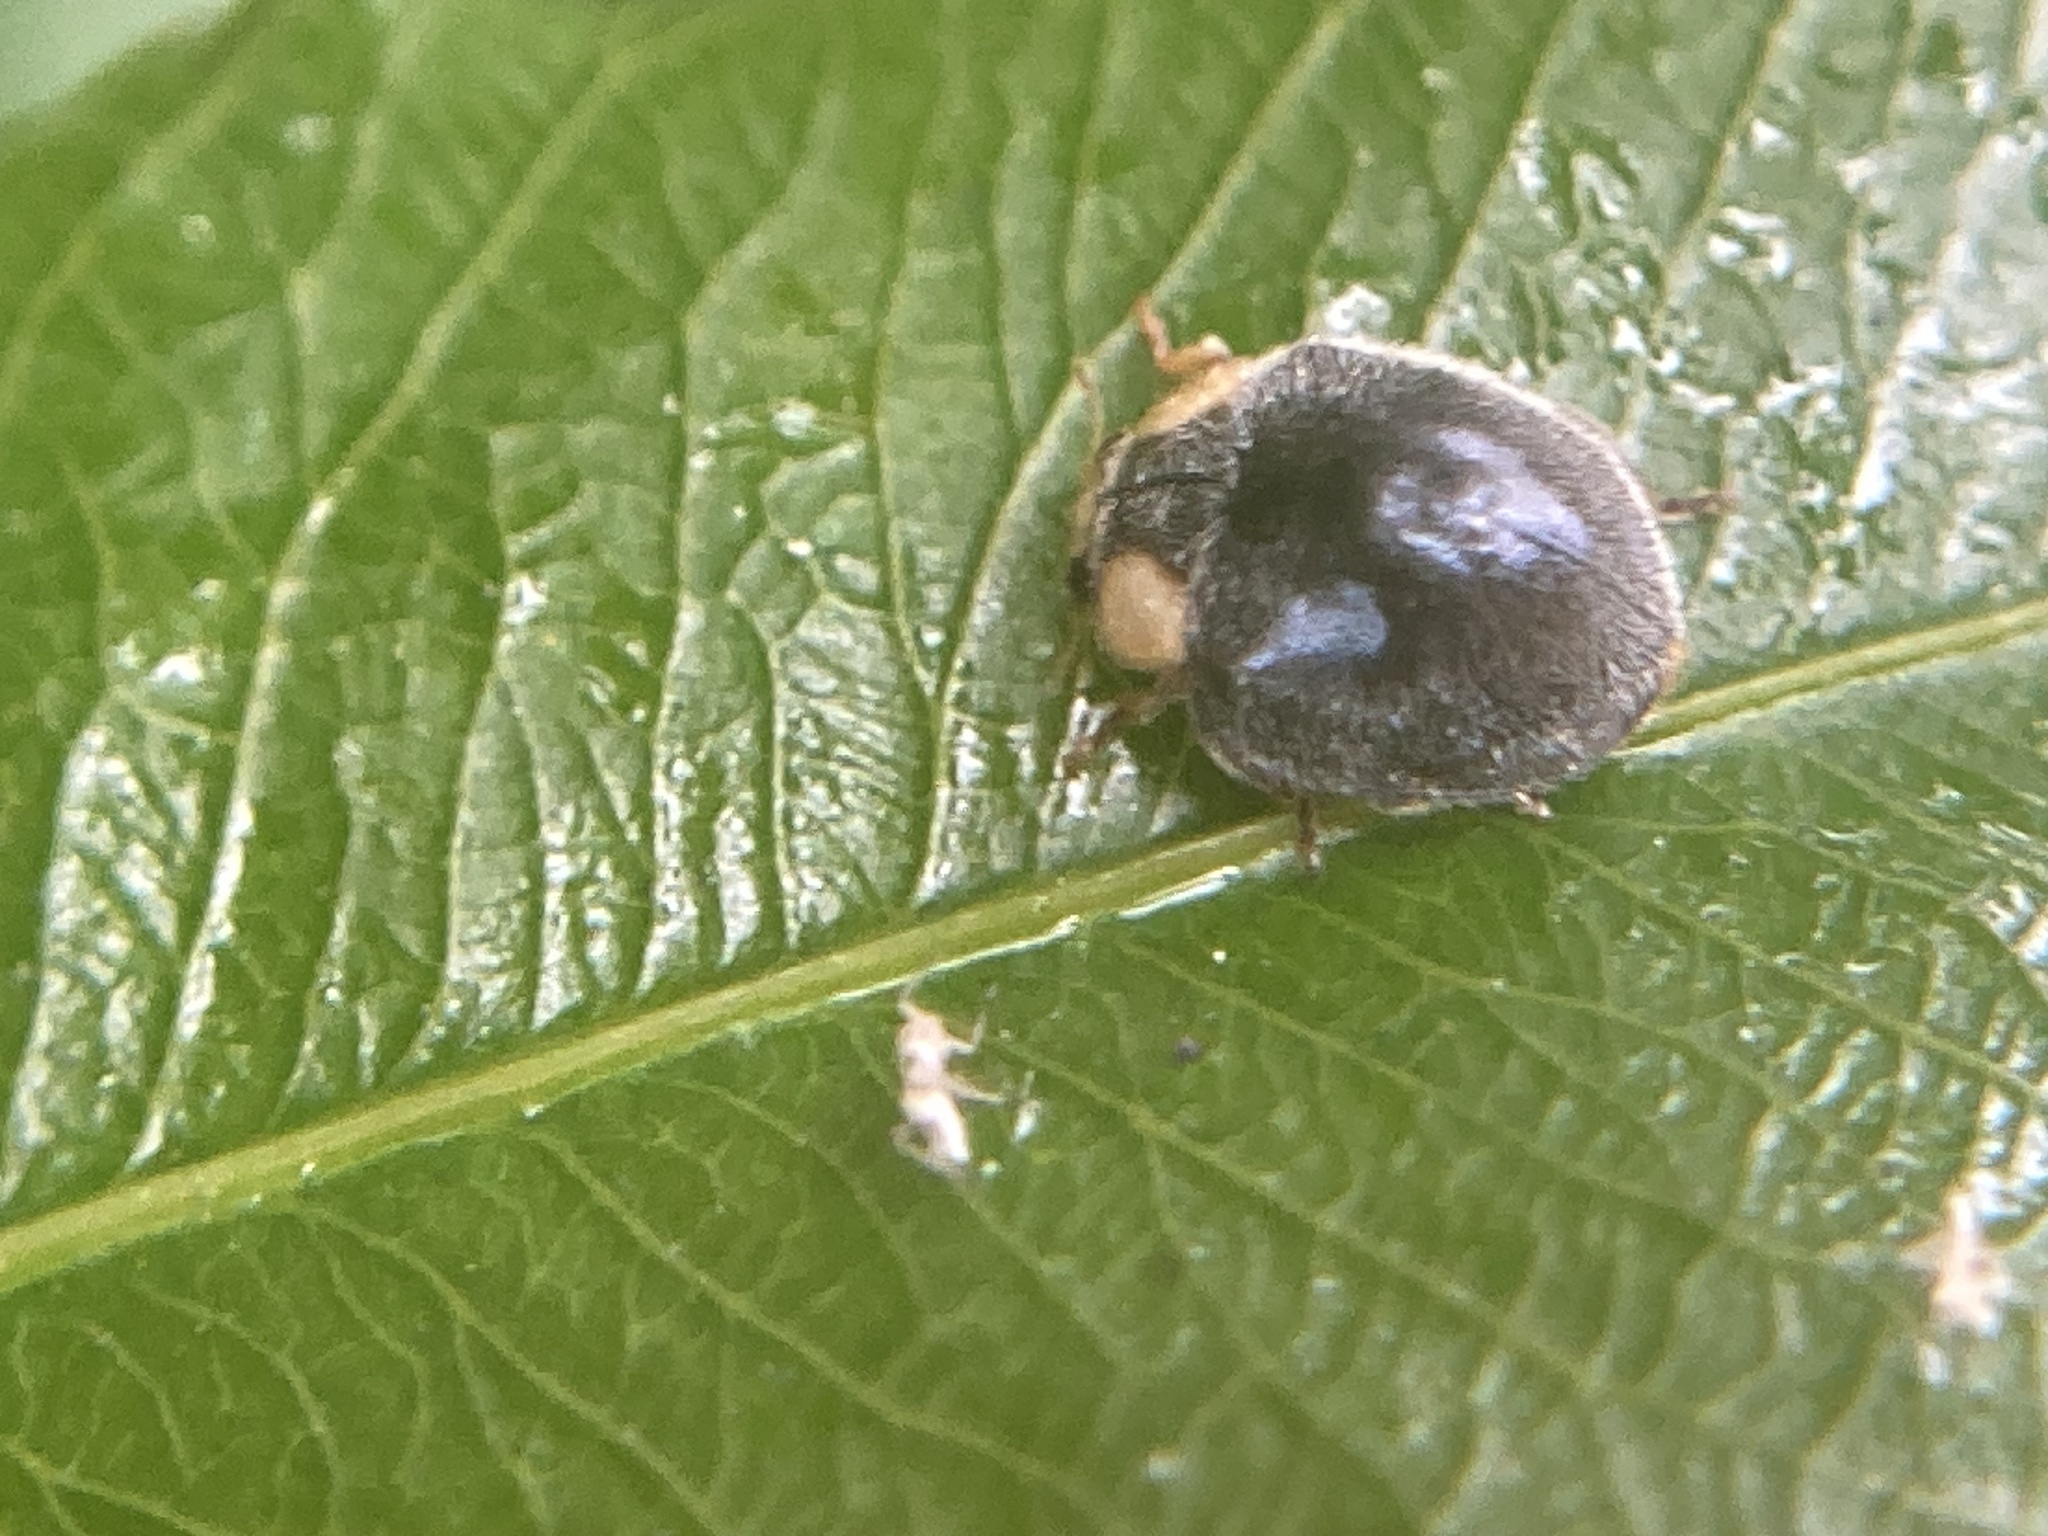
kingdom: Animalia
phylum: Arthropoda
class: Insecta
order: Coleoptera
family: Coccinellidae
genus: Scymnodes
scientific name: Scymnodes lividigaster
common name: Yellowshouldered lady beetle
